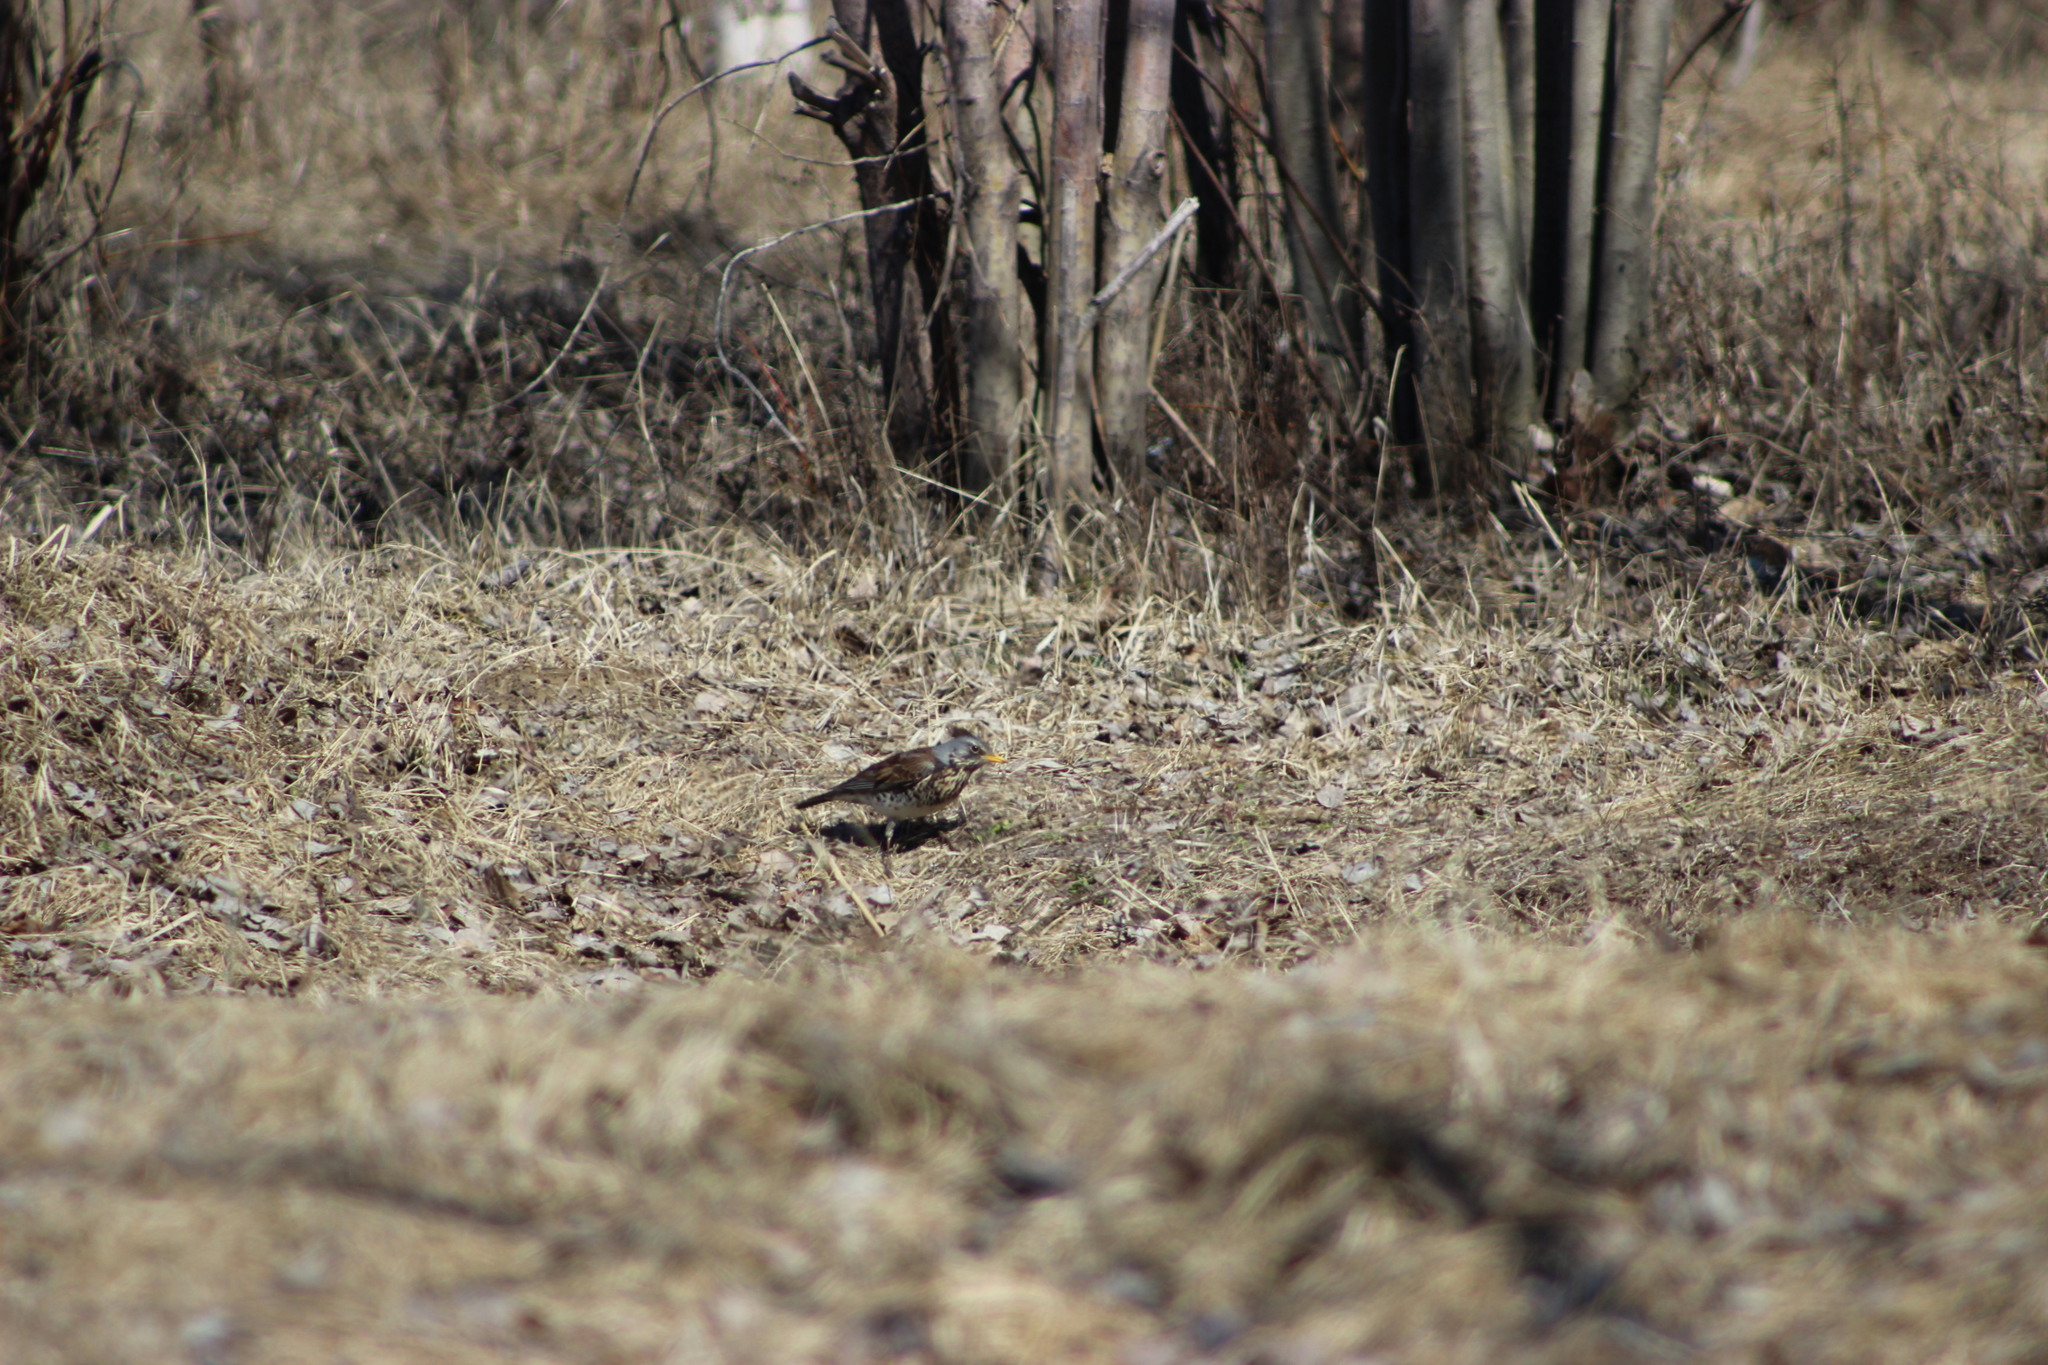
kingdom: Animalia
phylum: Chordata
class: Aves
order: Passeriformes
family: Turdidae
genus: Turdus
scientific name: Turdus pilaris
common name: Fieldfare
